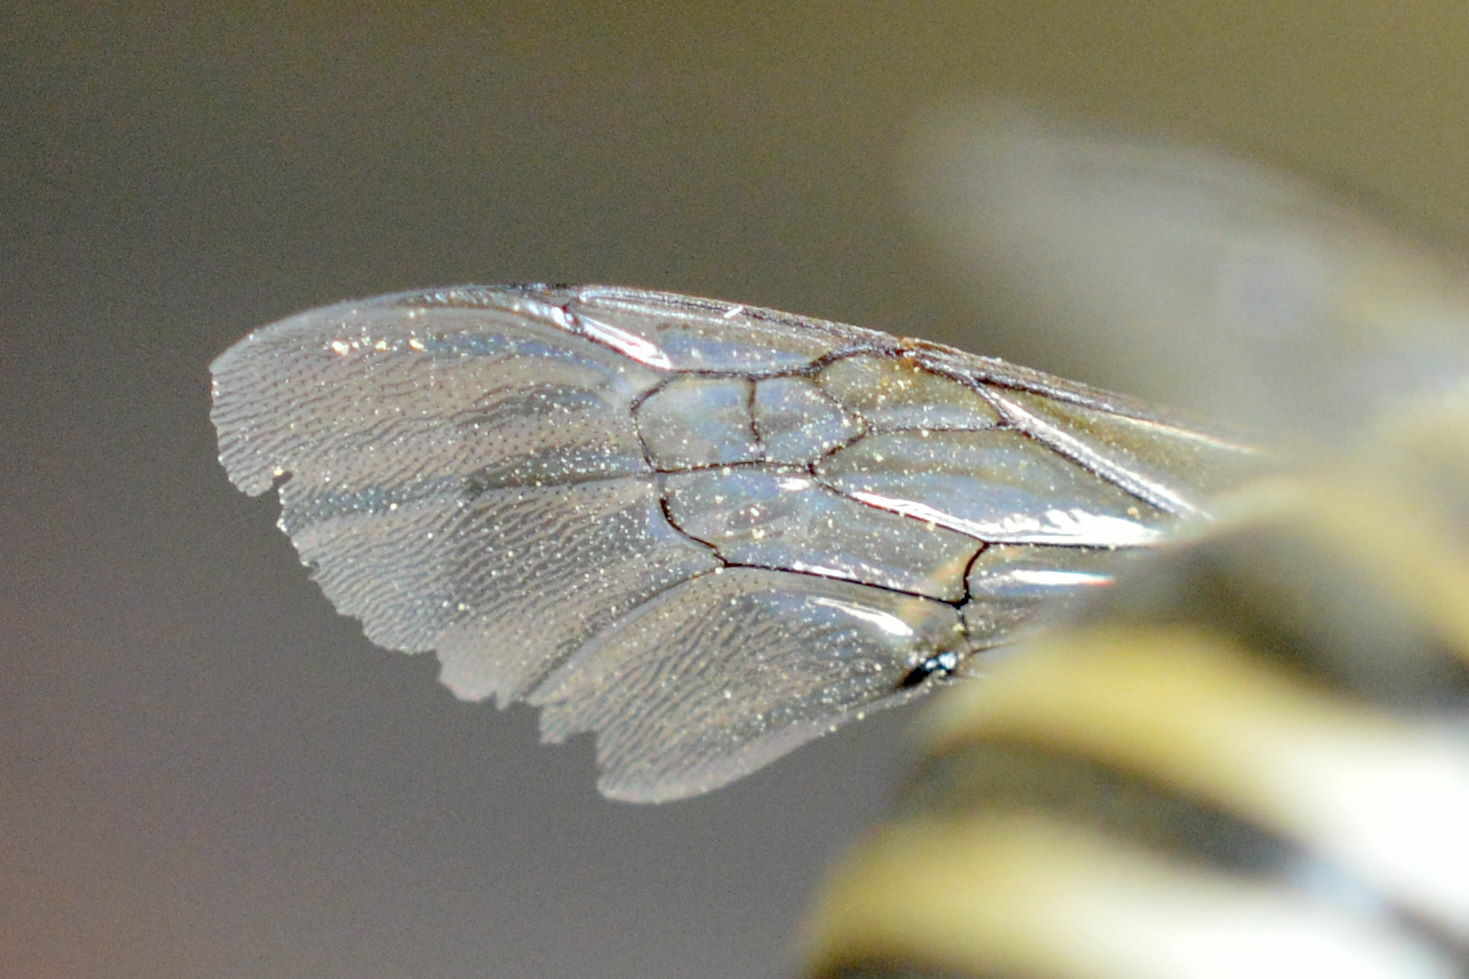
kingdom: Animalia
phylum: Arthropoda
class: Insecta
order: Hymenoptera
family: Apidae
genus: Amegilla
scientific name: Amegilla quadrifasciata
